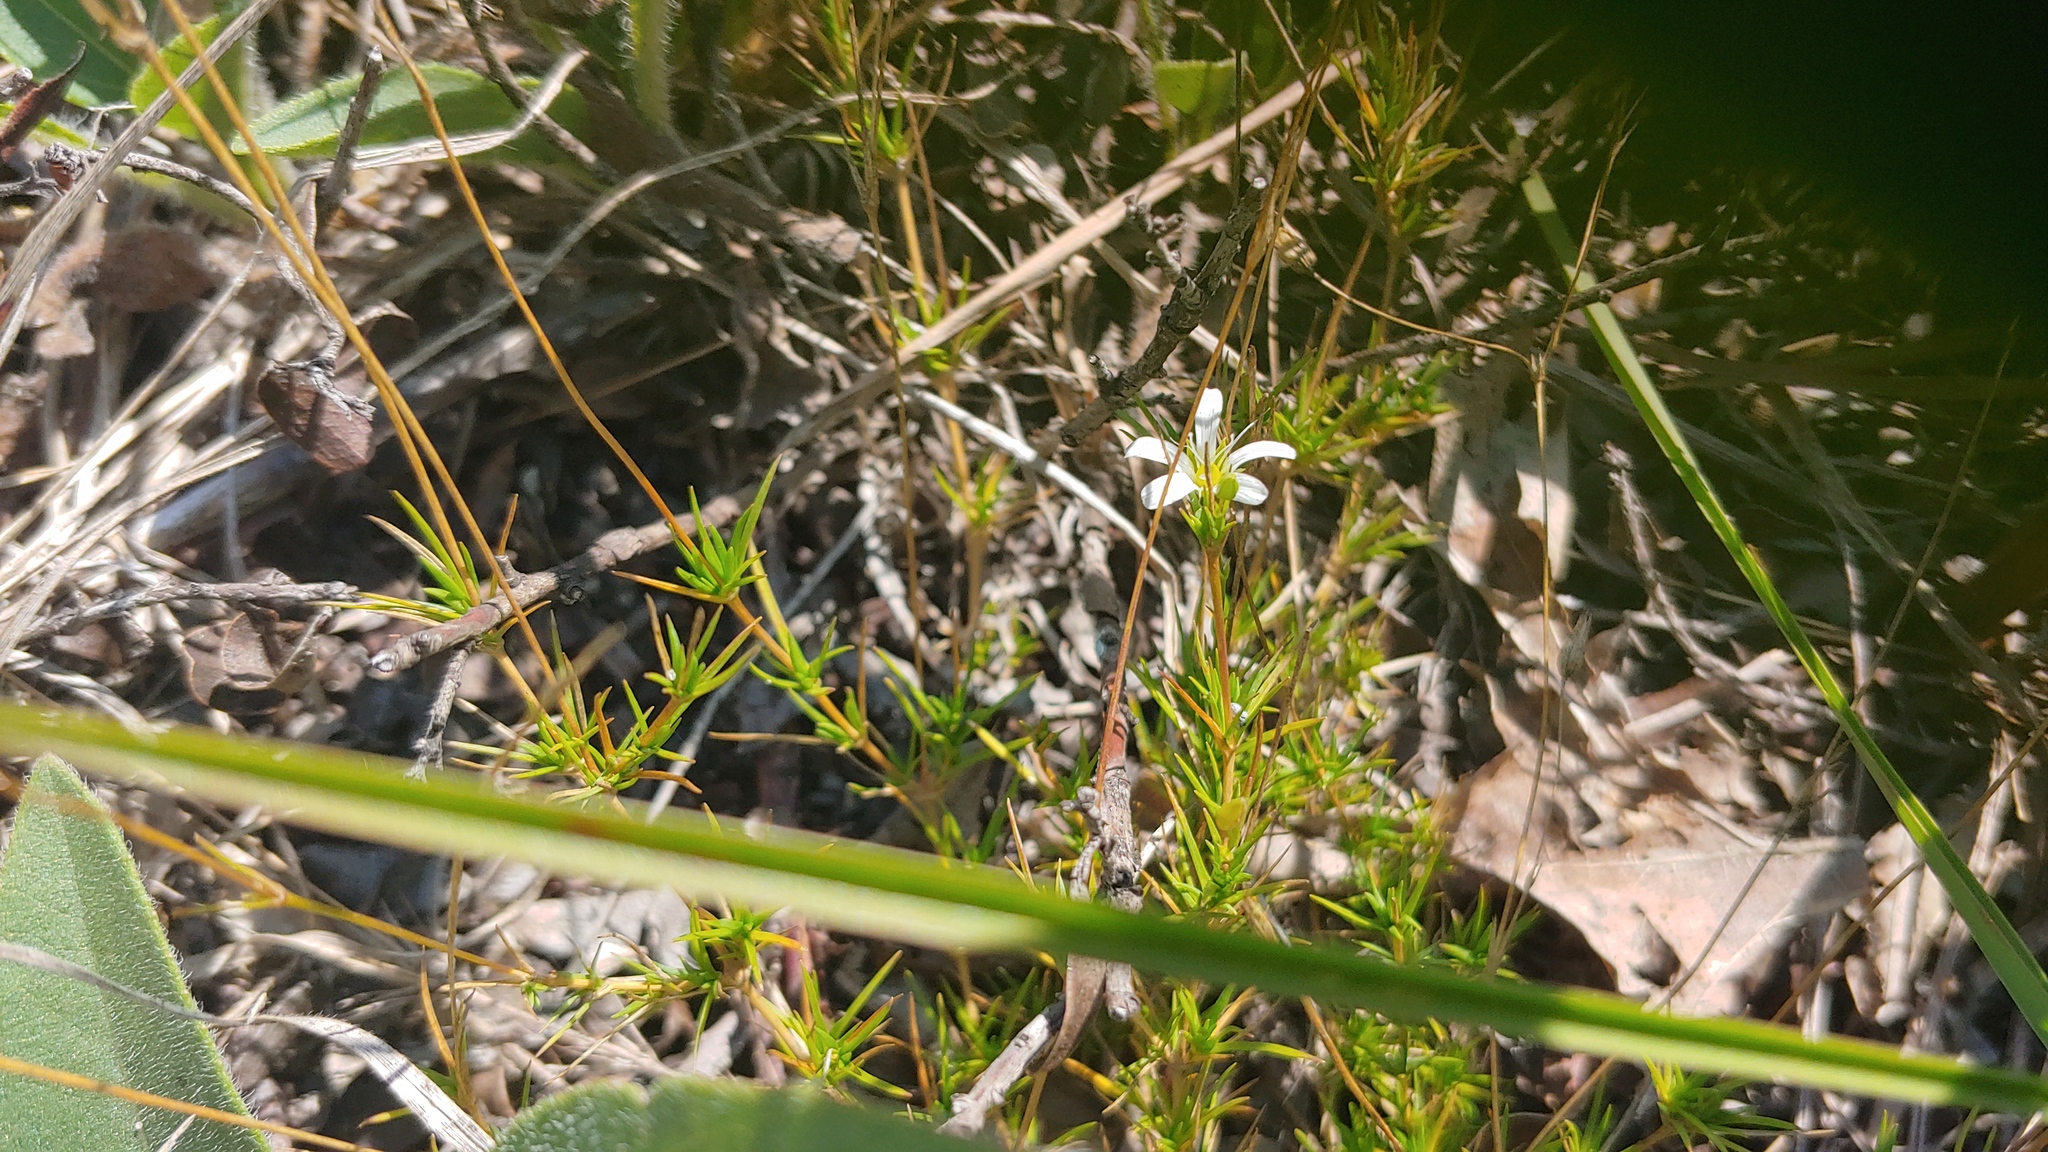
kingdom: Plantae
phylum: Tracheophyta
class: Magnoliopsida
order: Caryophyllales
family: Caryophyllaceae
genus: Sabulina
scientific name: Sabulina michauxii
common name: Michaux's stitchwort
